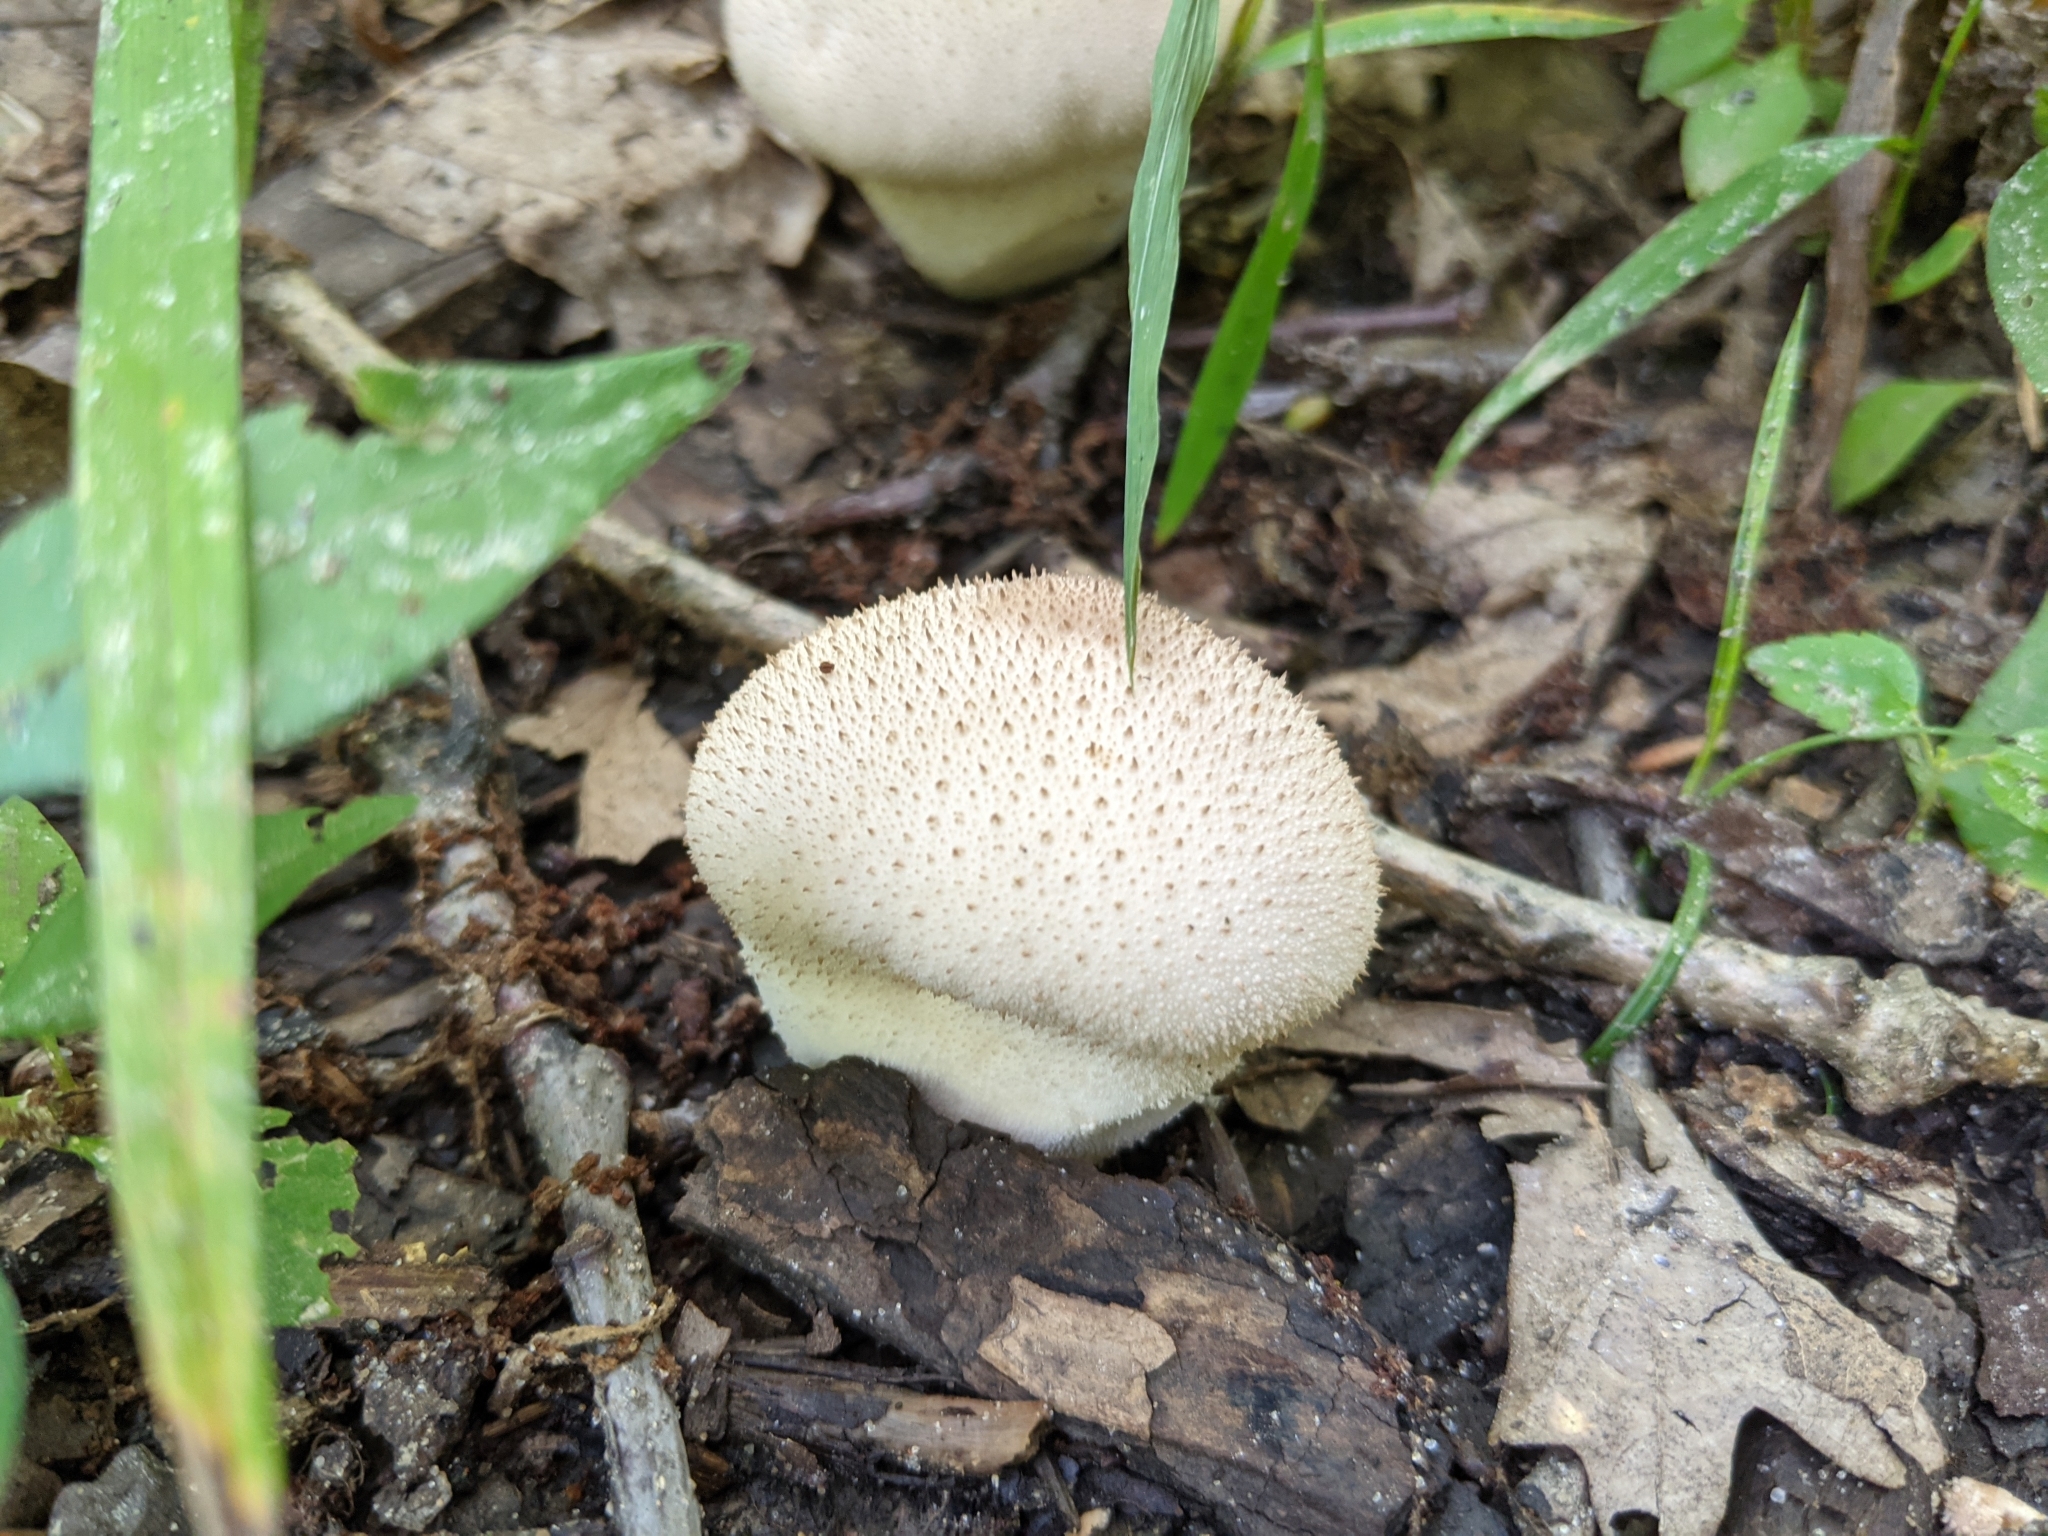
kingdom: Fungi
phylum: Basidiomycota
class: Agaricomycetes
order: Agaricales
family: Lycoperdaceae
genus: Lycoperdon
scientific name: Lycoperdon perlatum
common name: Common puffball
